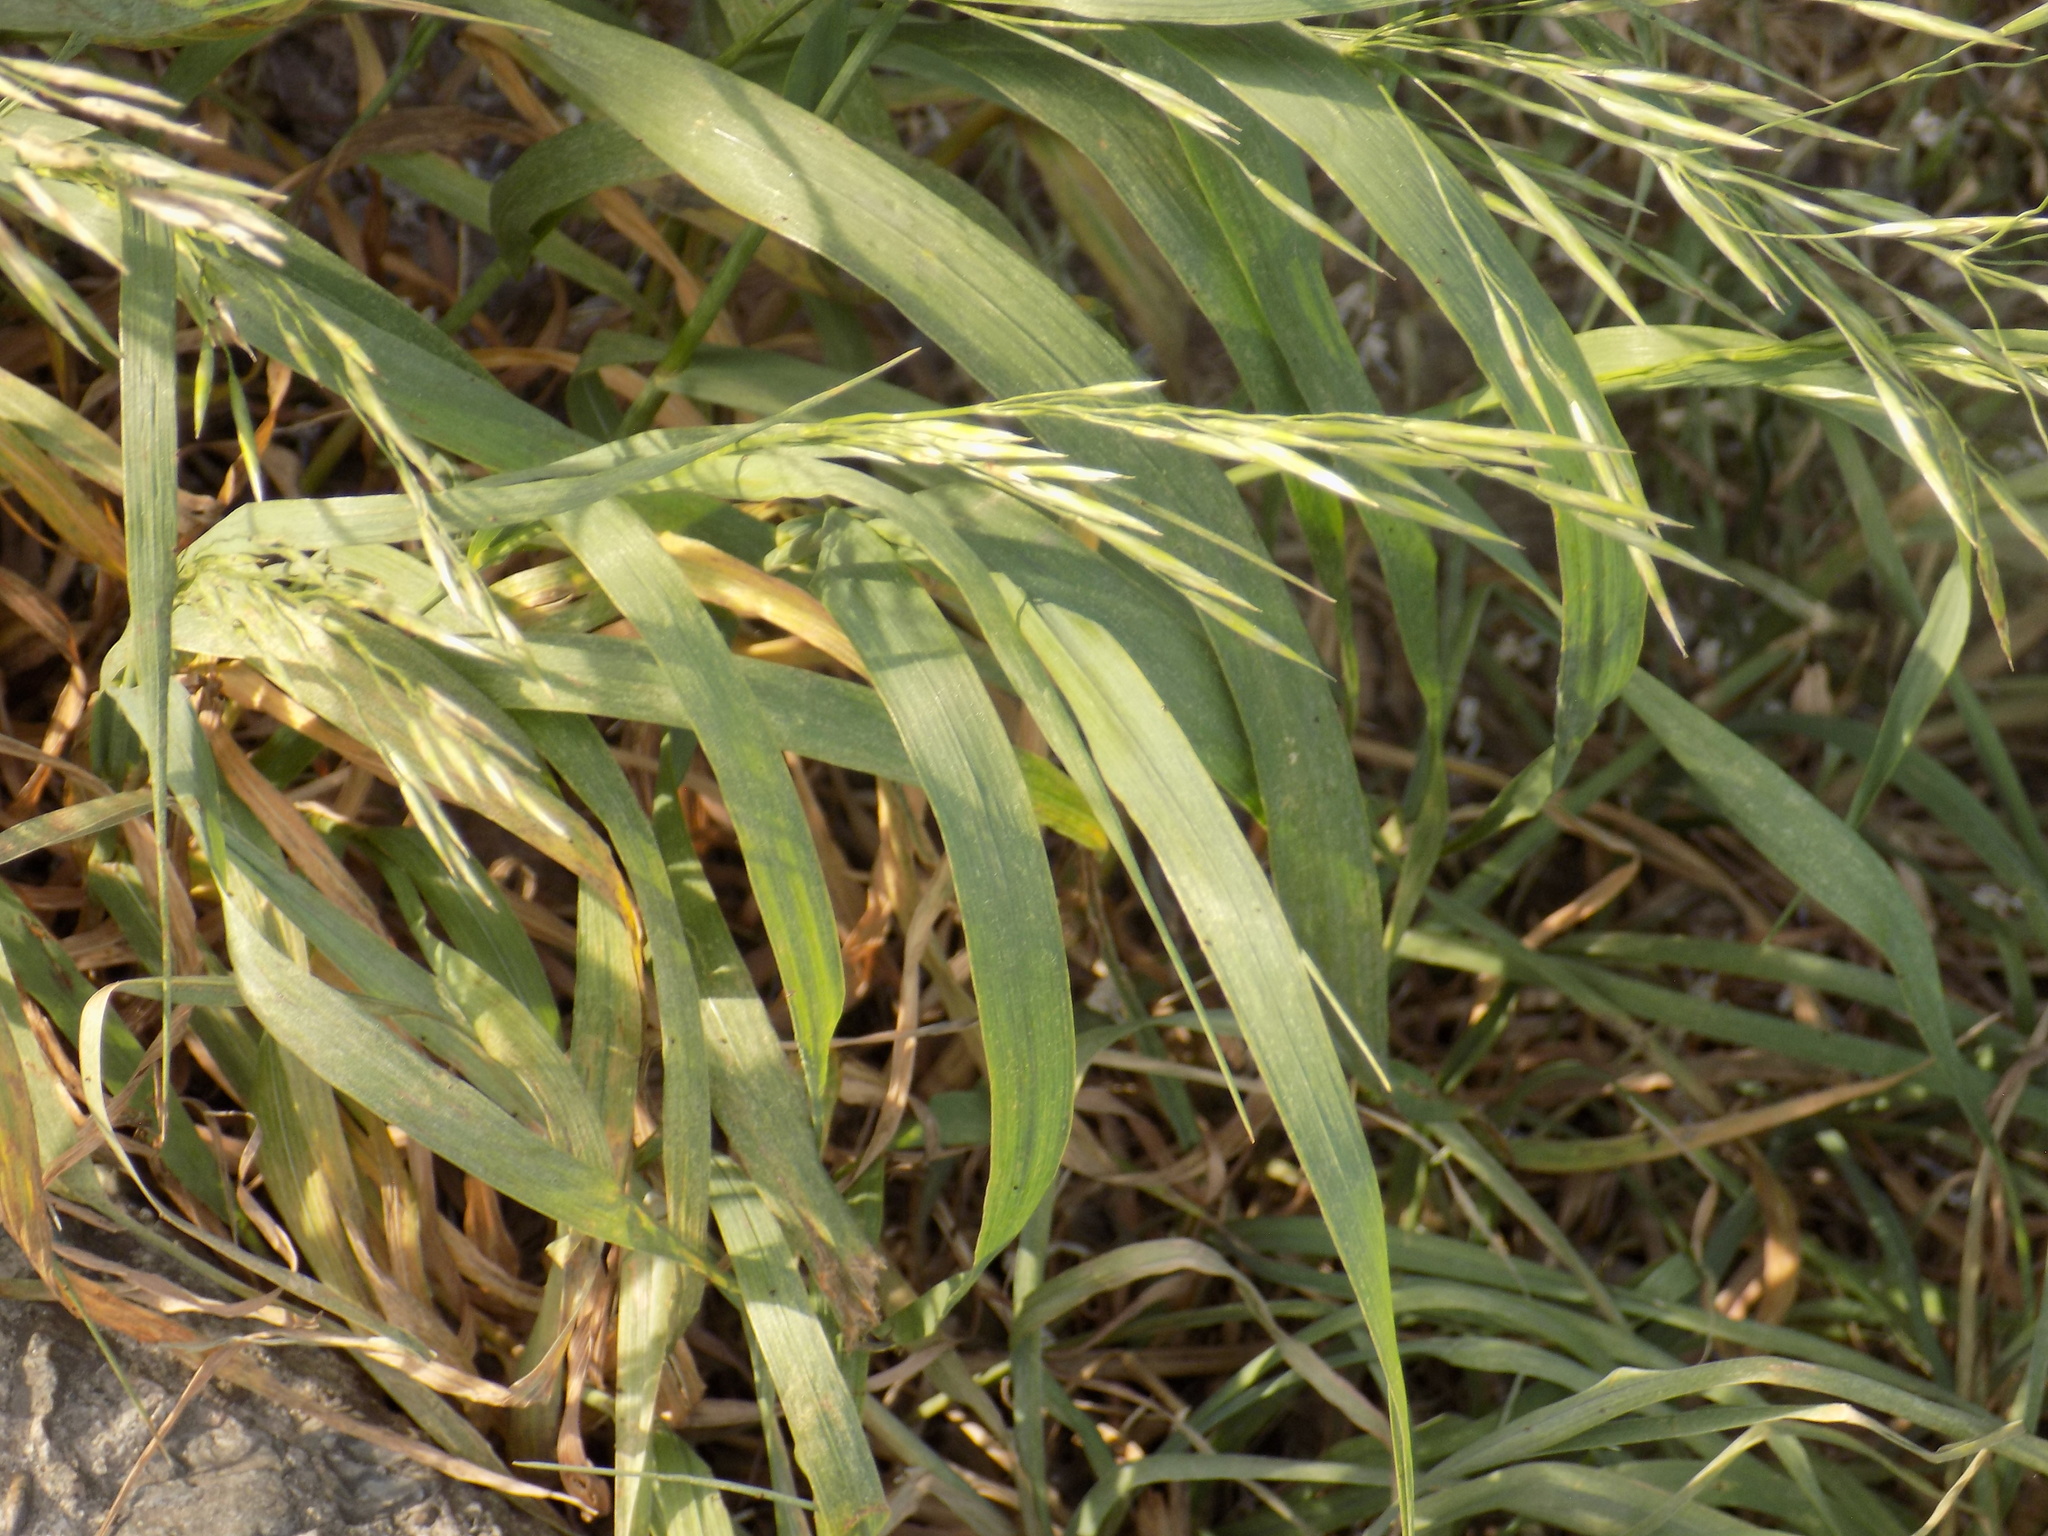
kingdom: Plantae
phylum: Tracheophyta
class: Liliopsida
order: Poales
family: Poaceae
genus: Bromus
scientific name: Bromus inermis
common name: Smooth brome
